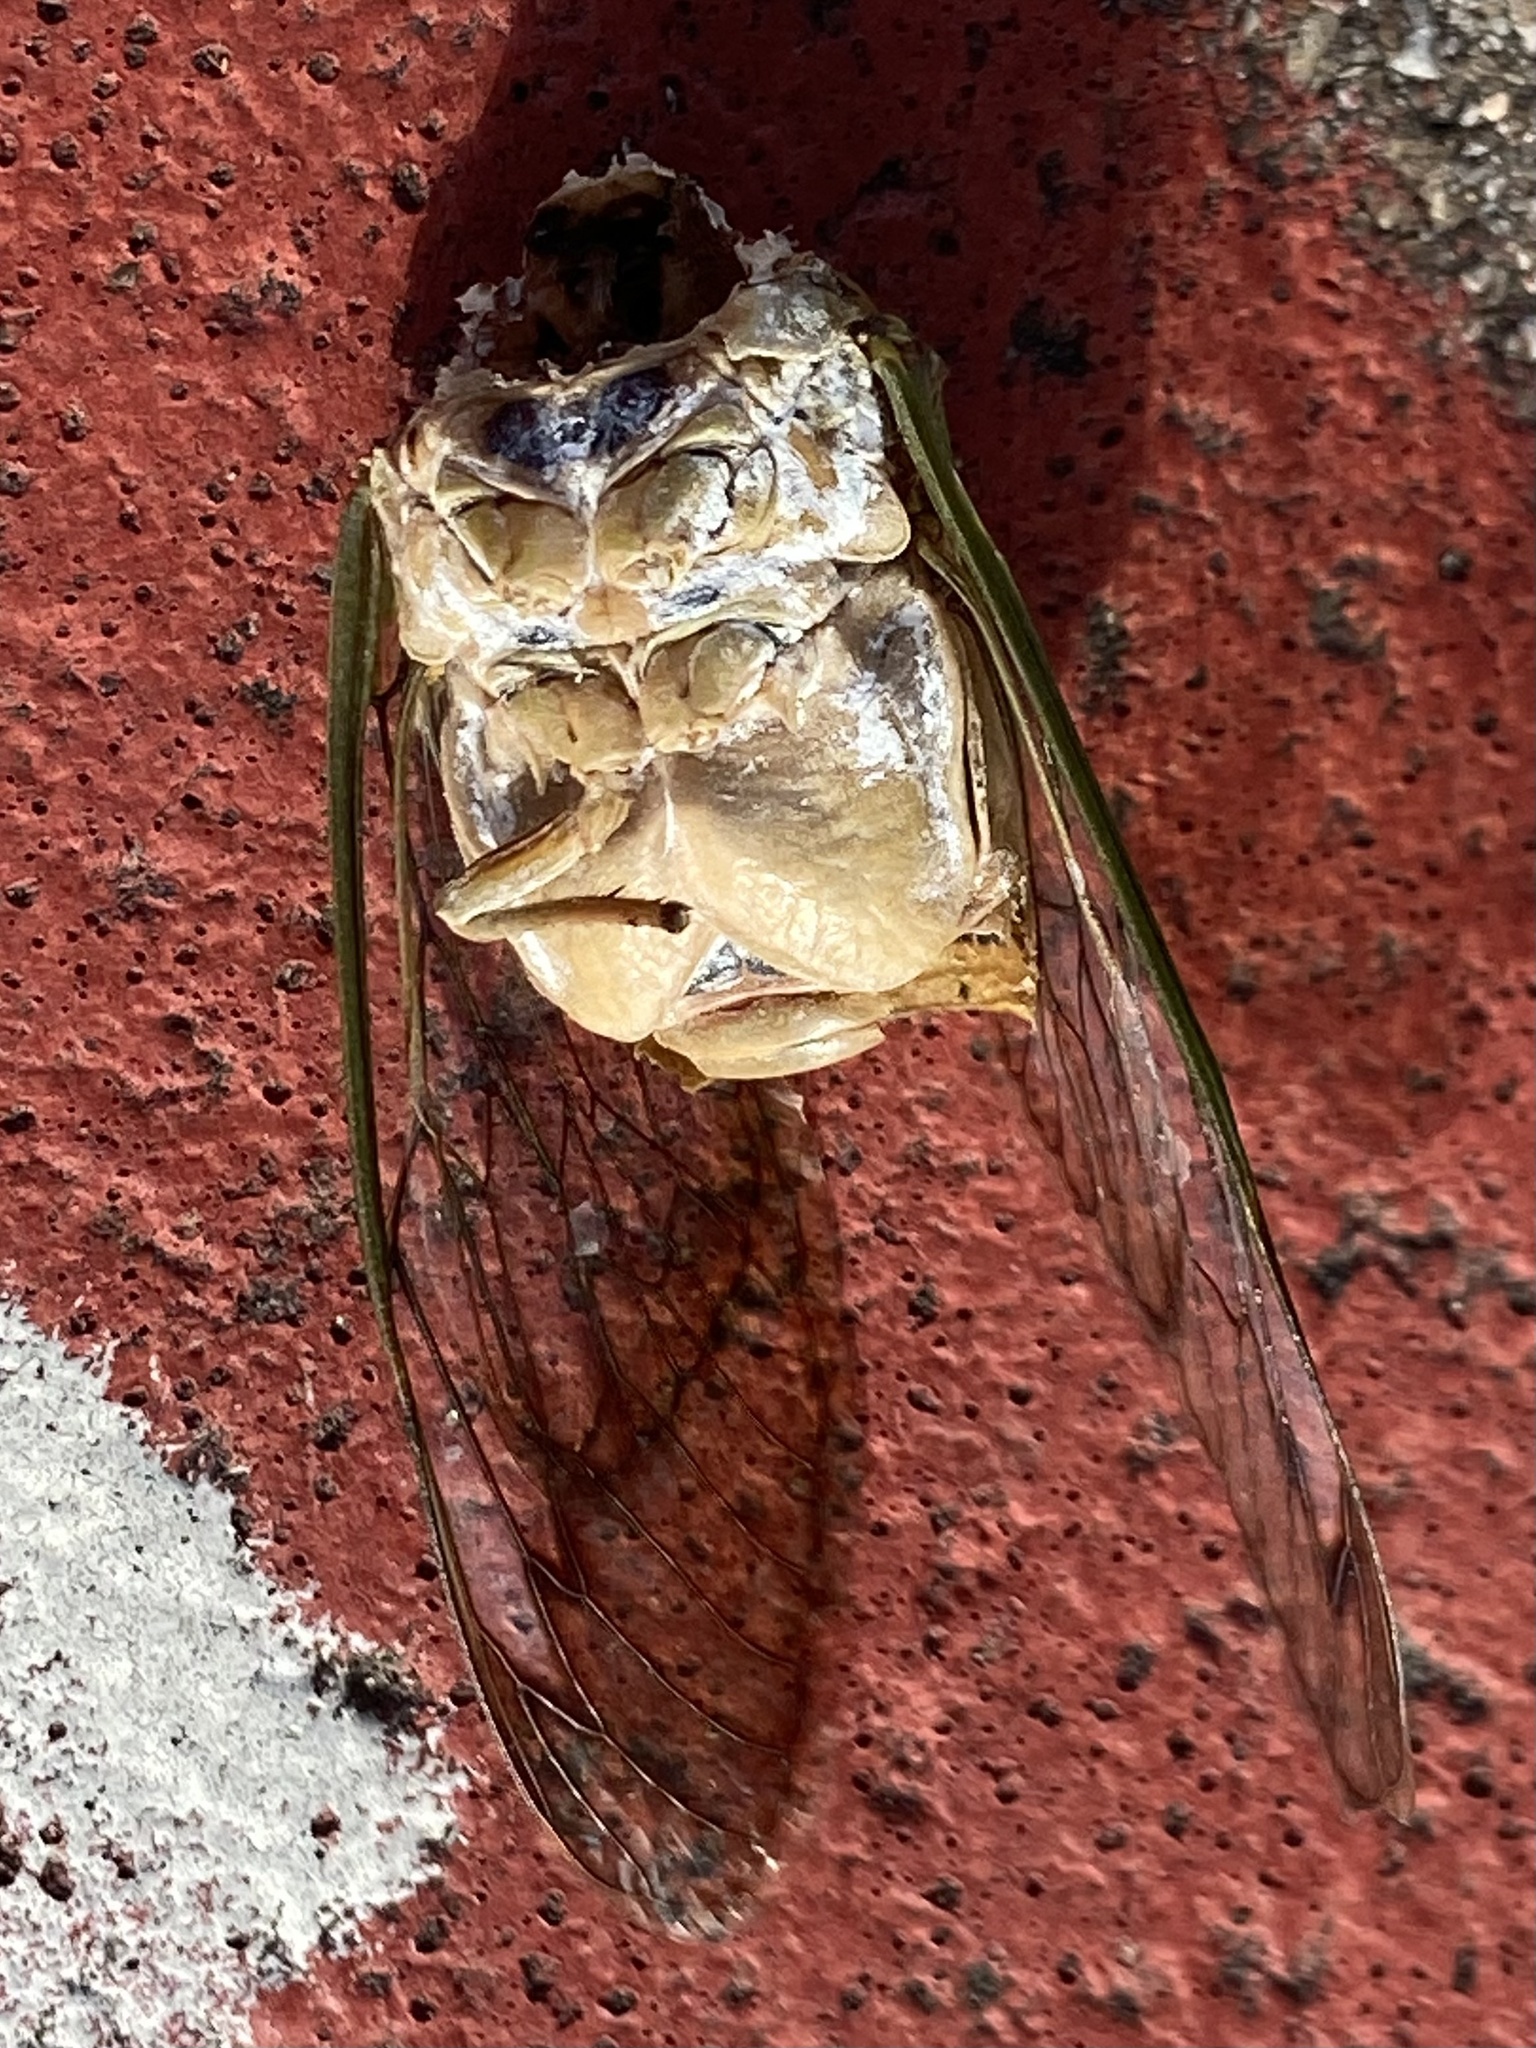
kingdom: Animalia
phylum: Arthropoda
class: Insecta
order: Hemiptera
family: Cicadidae
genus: Neotibicen
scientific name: Neotibicen superbus
